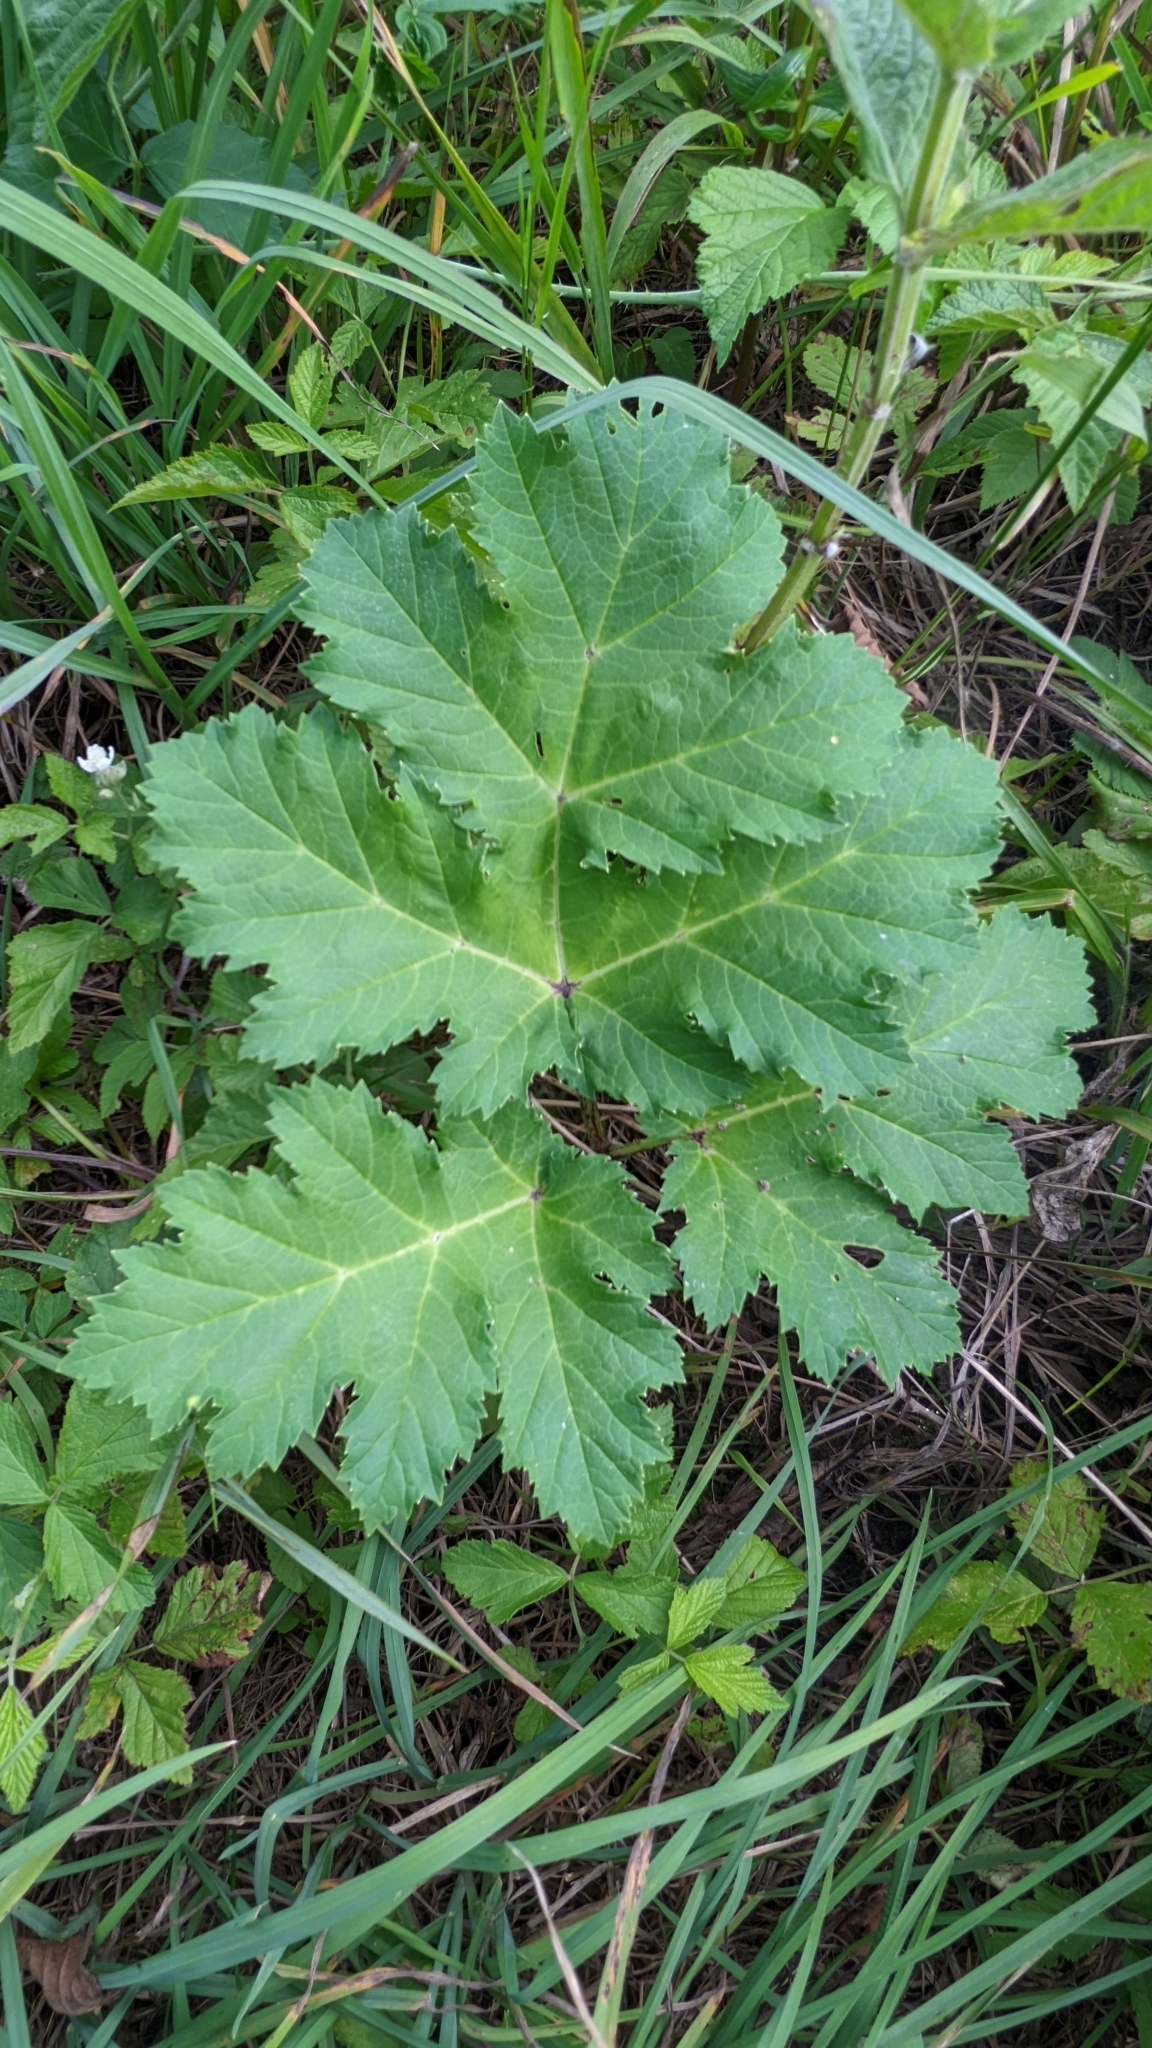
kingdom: Plantae
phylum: Tracheophyta
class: Magnoliopsida
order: Apiales
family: Apiaceae
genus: Heracleum
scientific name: Heracleum sosnowskyi
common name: Sosnowsky's hogweed
